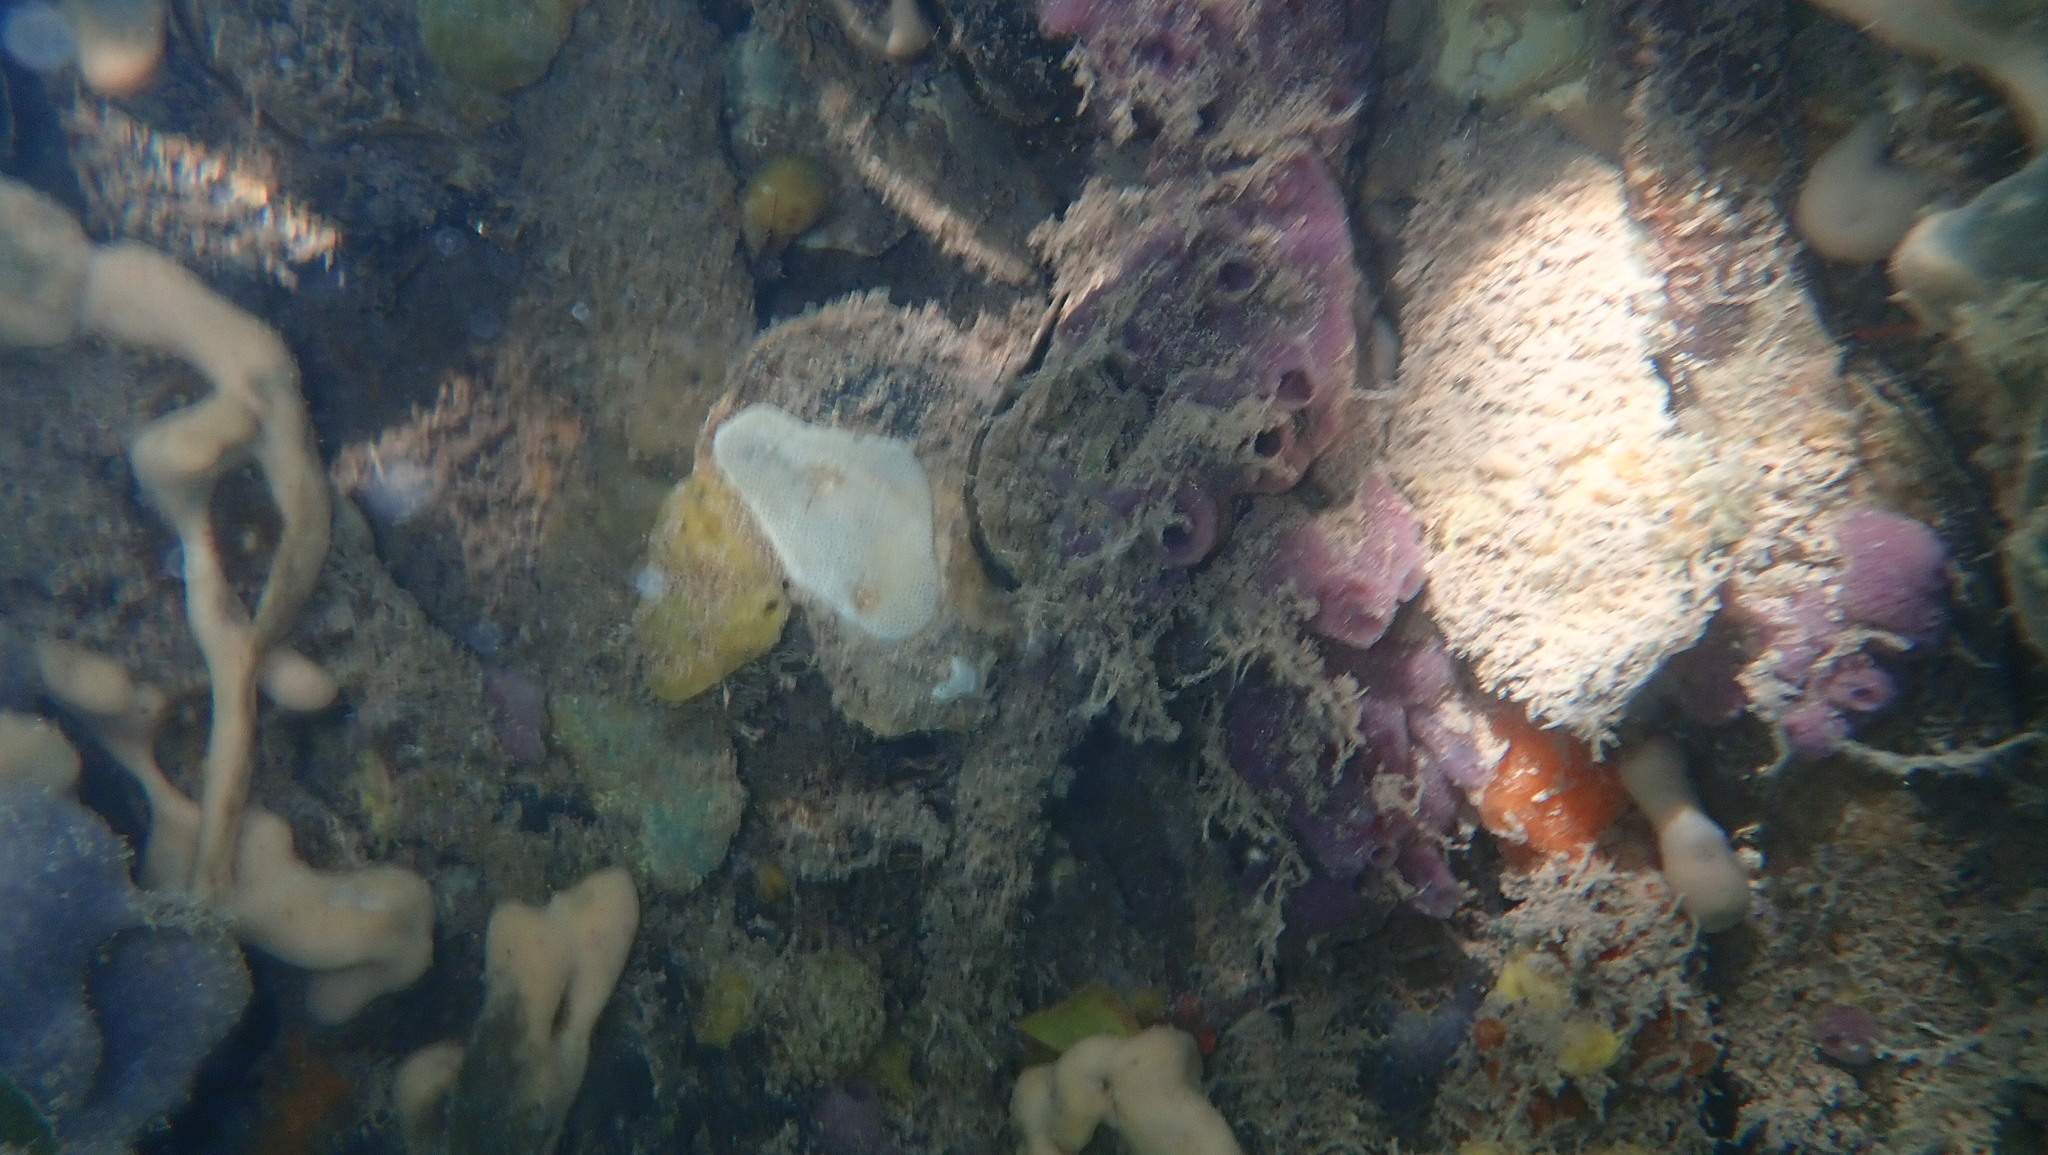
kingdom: Animalia
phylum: Porifera
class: Demospongiae
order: Haplosclerida
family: Chalinidae
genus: Haliclona
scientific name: Haliclona implexiformis
